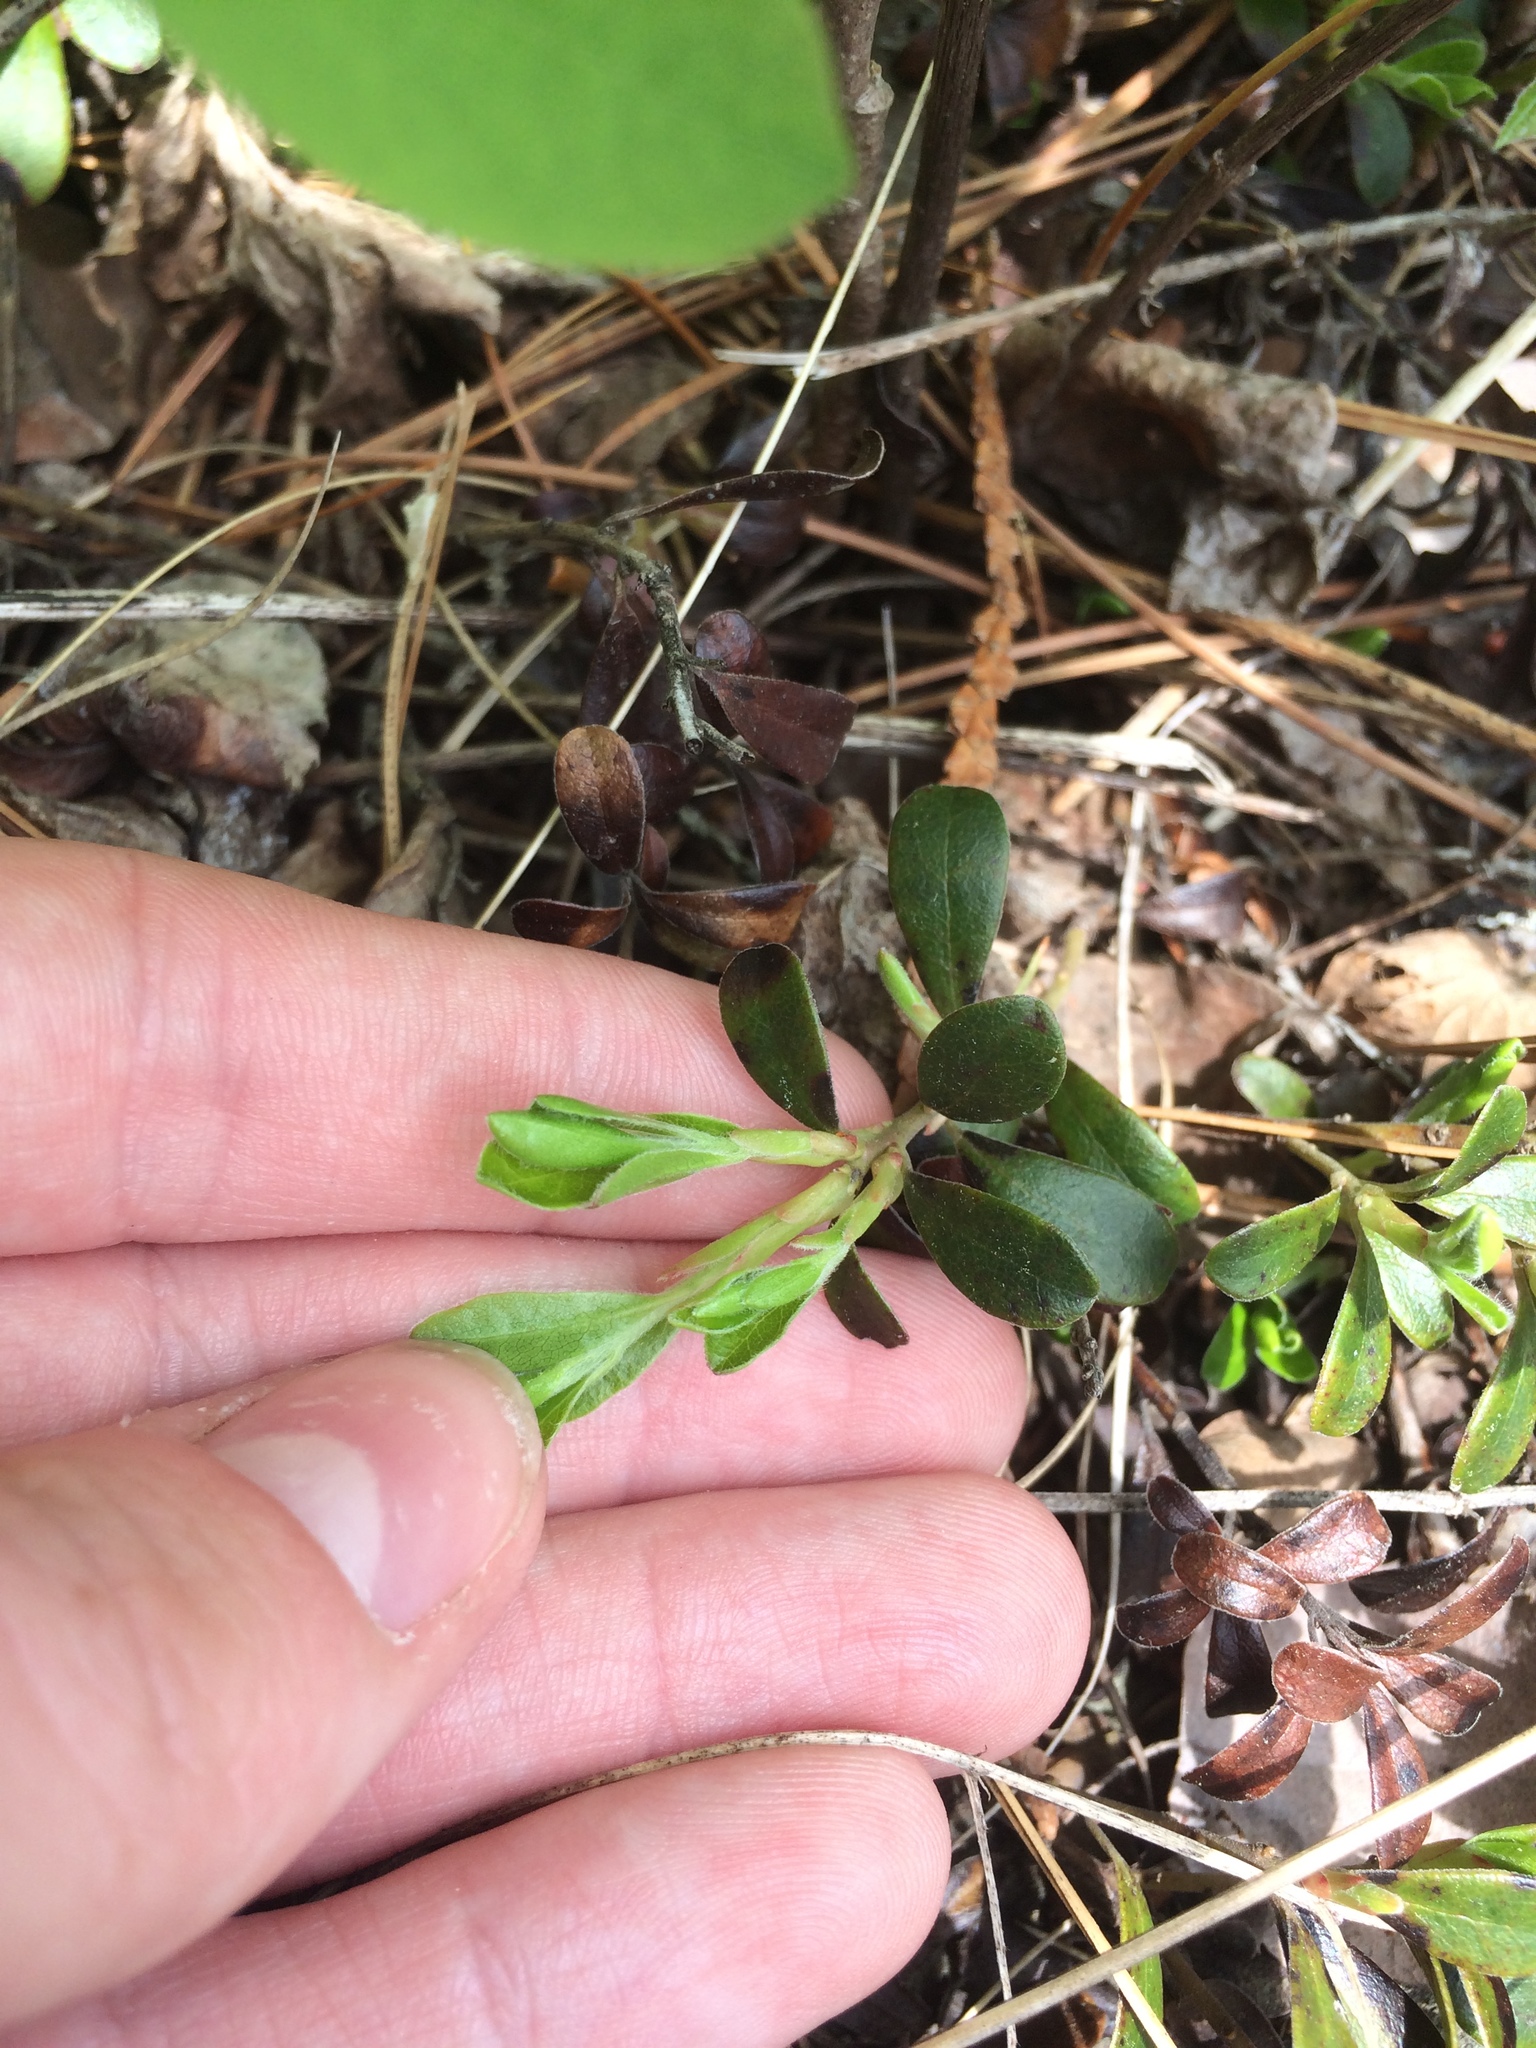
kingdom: Plantae
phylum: Tracheophyta
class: Magnoliopsida
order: Ericales
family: Ericaceae
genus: Arctostaphylos
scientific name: Arctostaphylos uva-ursi
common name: Bearberry
